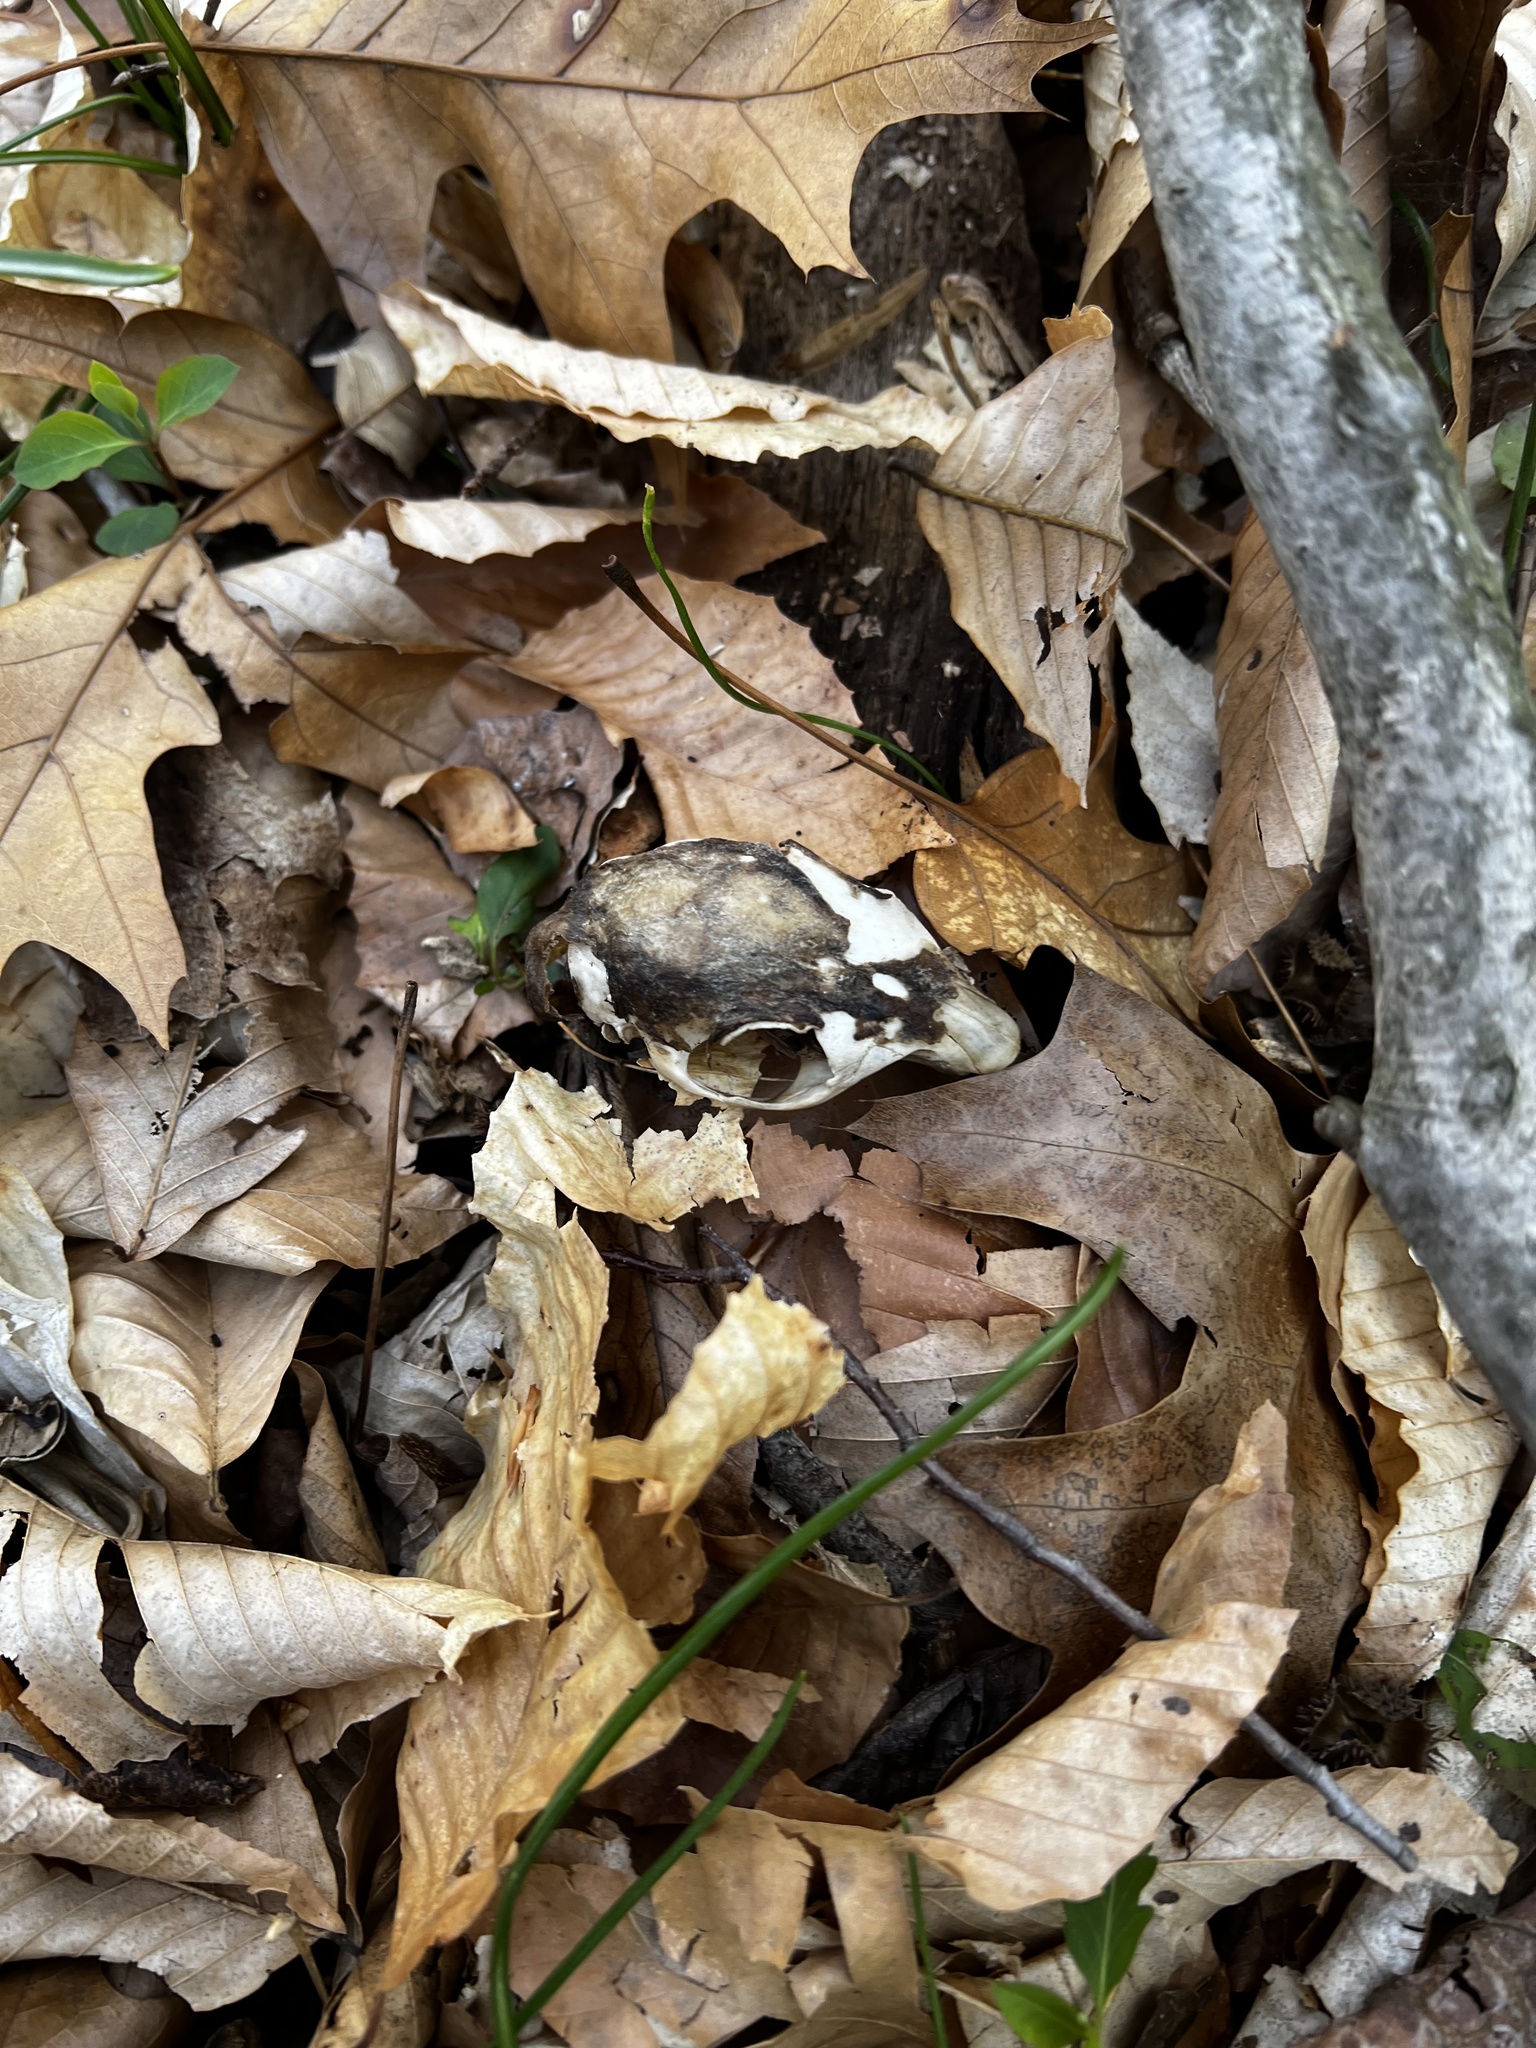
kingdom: Animalia
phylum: Chordata
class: Mammalia
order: Rodentia
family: Sciuridae
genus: Sciurus
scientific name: Sciurus carolinensis
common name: Eastern gray squirrel
